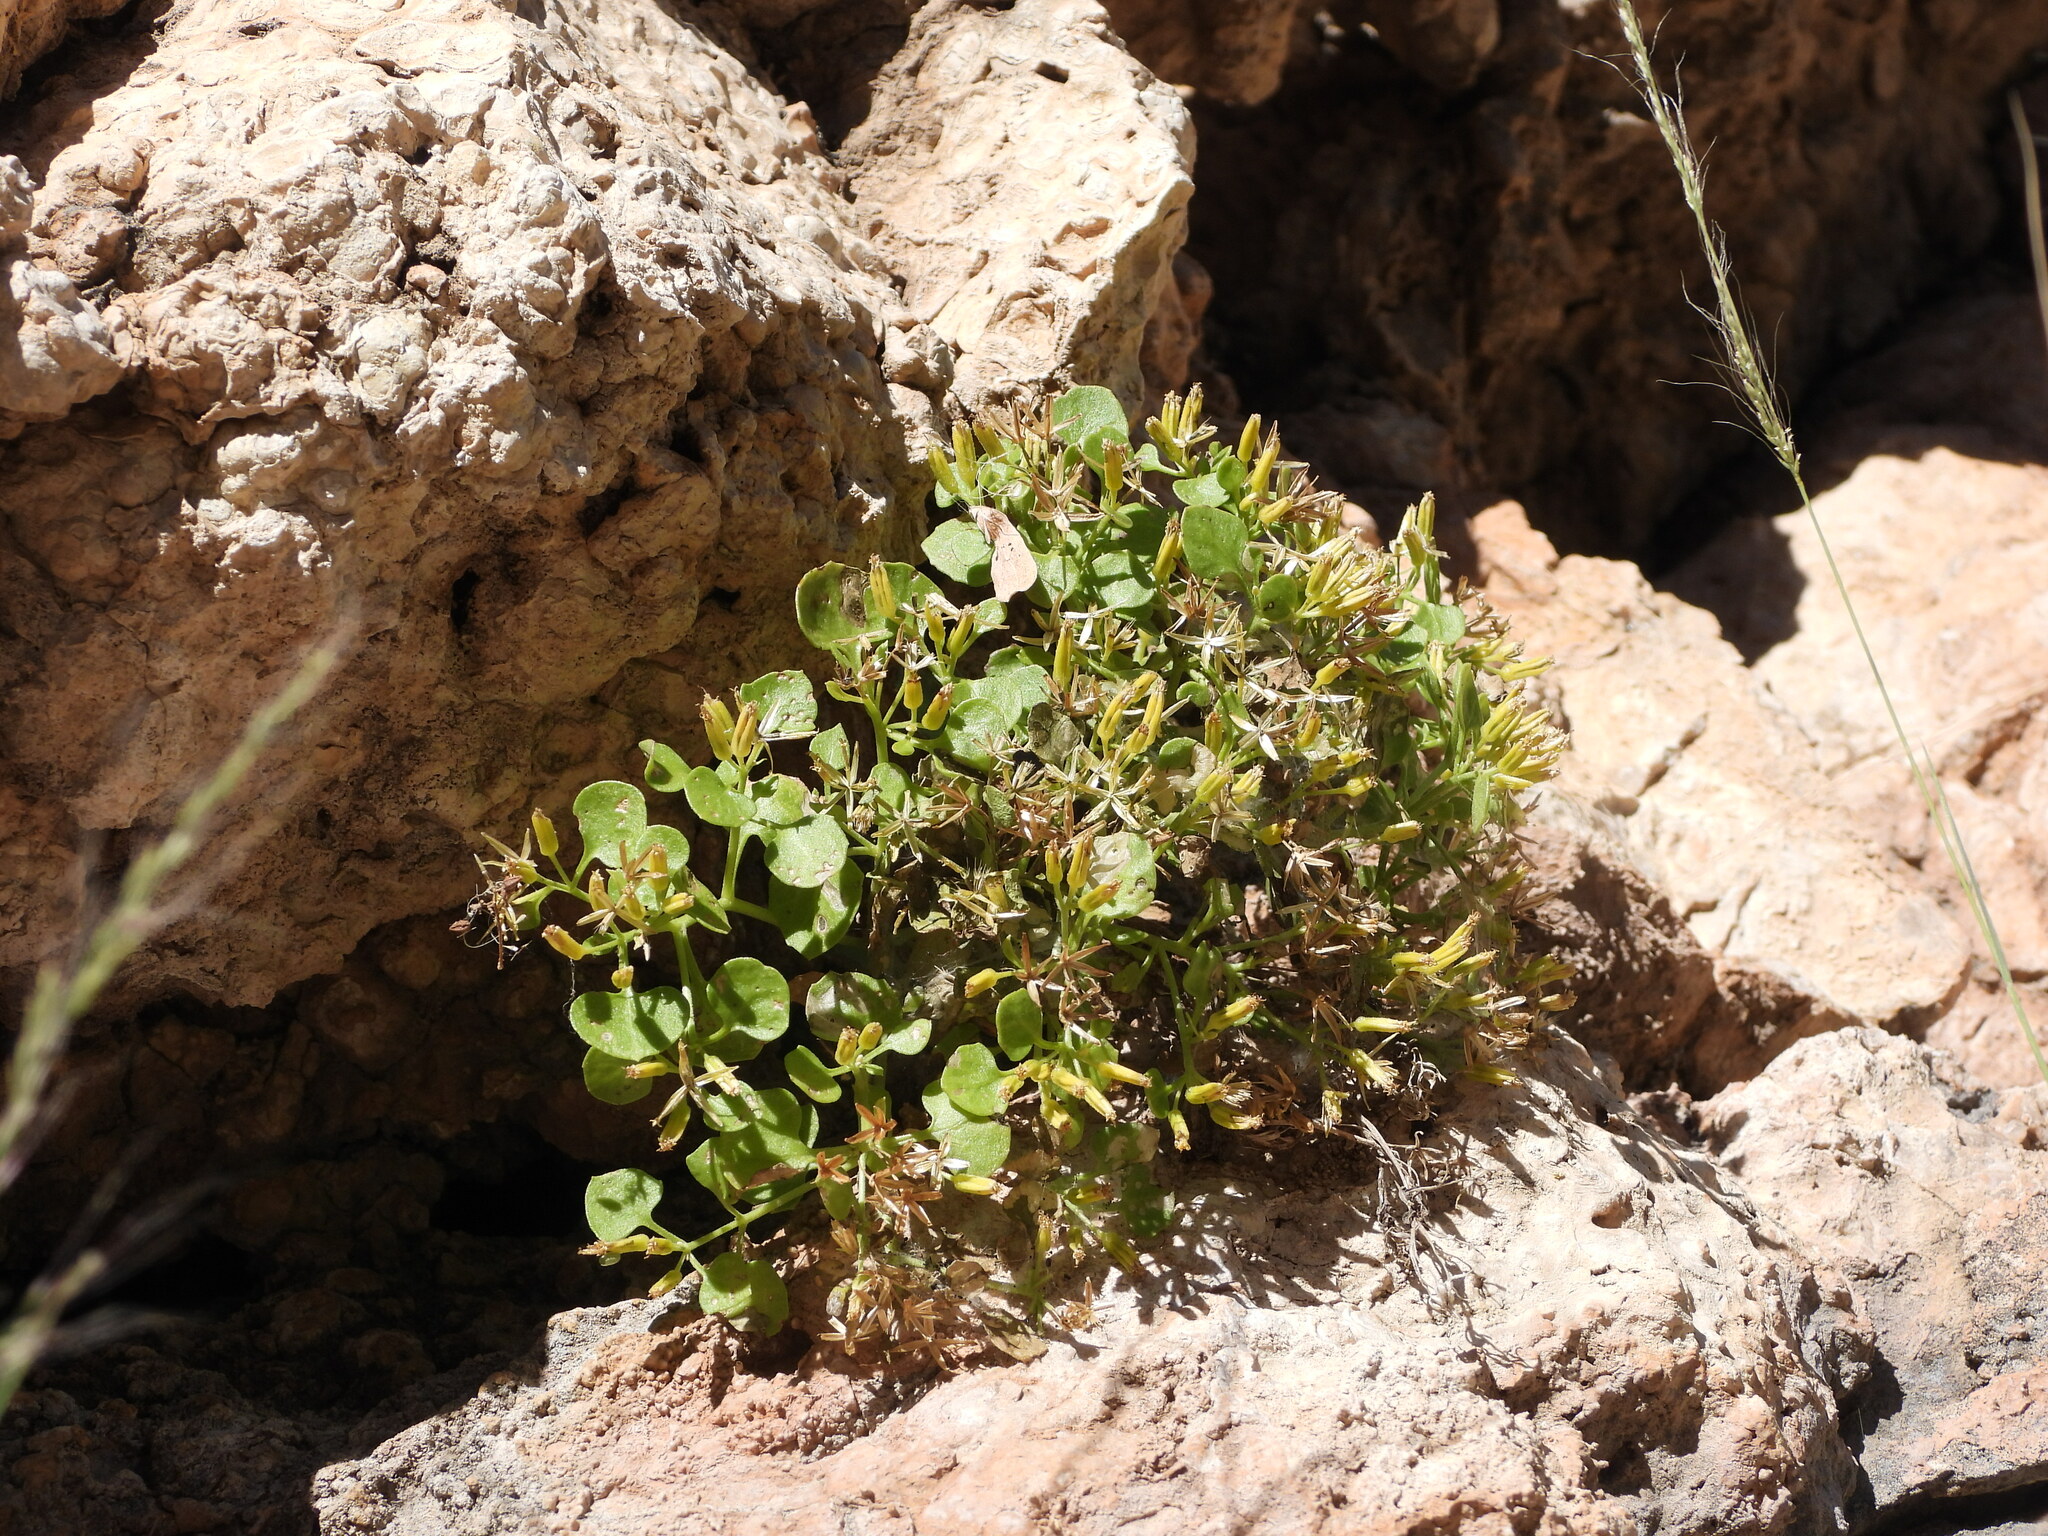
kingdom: Plantae
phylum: Tracheophyta
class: Magnoliopsida
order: Asterales
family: Asteraceae
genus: Laphamia
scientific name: Laphamia quinqueflora
